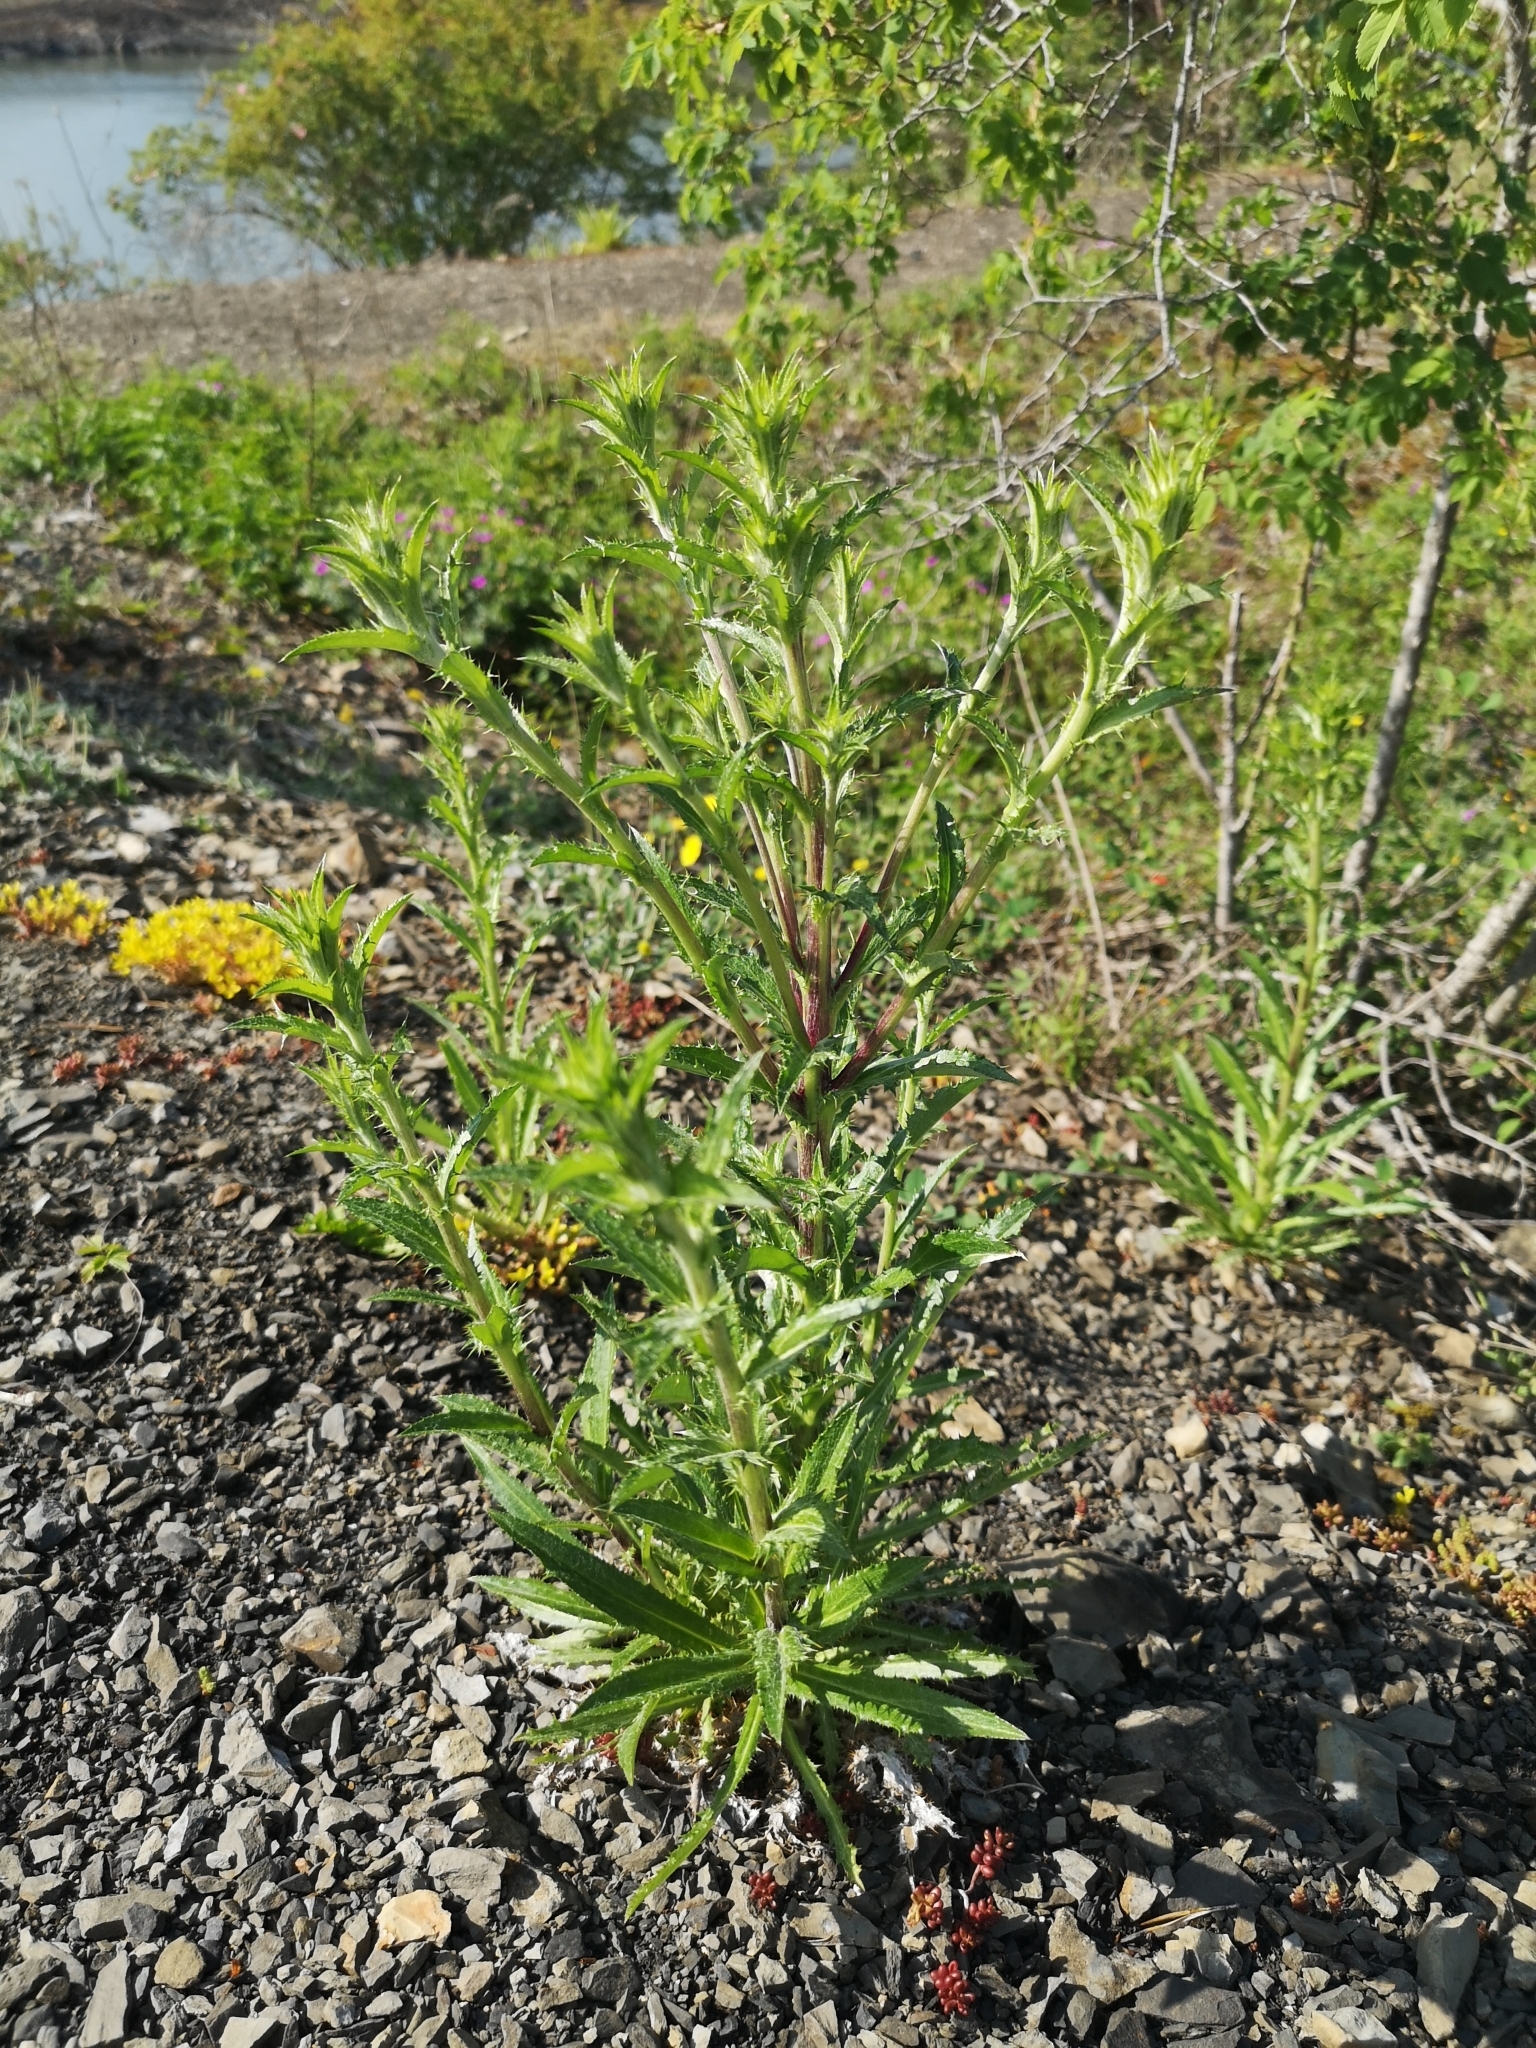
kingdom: Plantae
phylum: Tracheophyta
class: Magnoliopsida
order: Asterales
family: Asteraceae
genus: Carlina
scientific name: Carlina vulgaris
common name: Carline thistle
